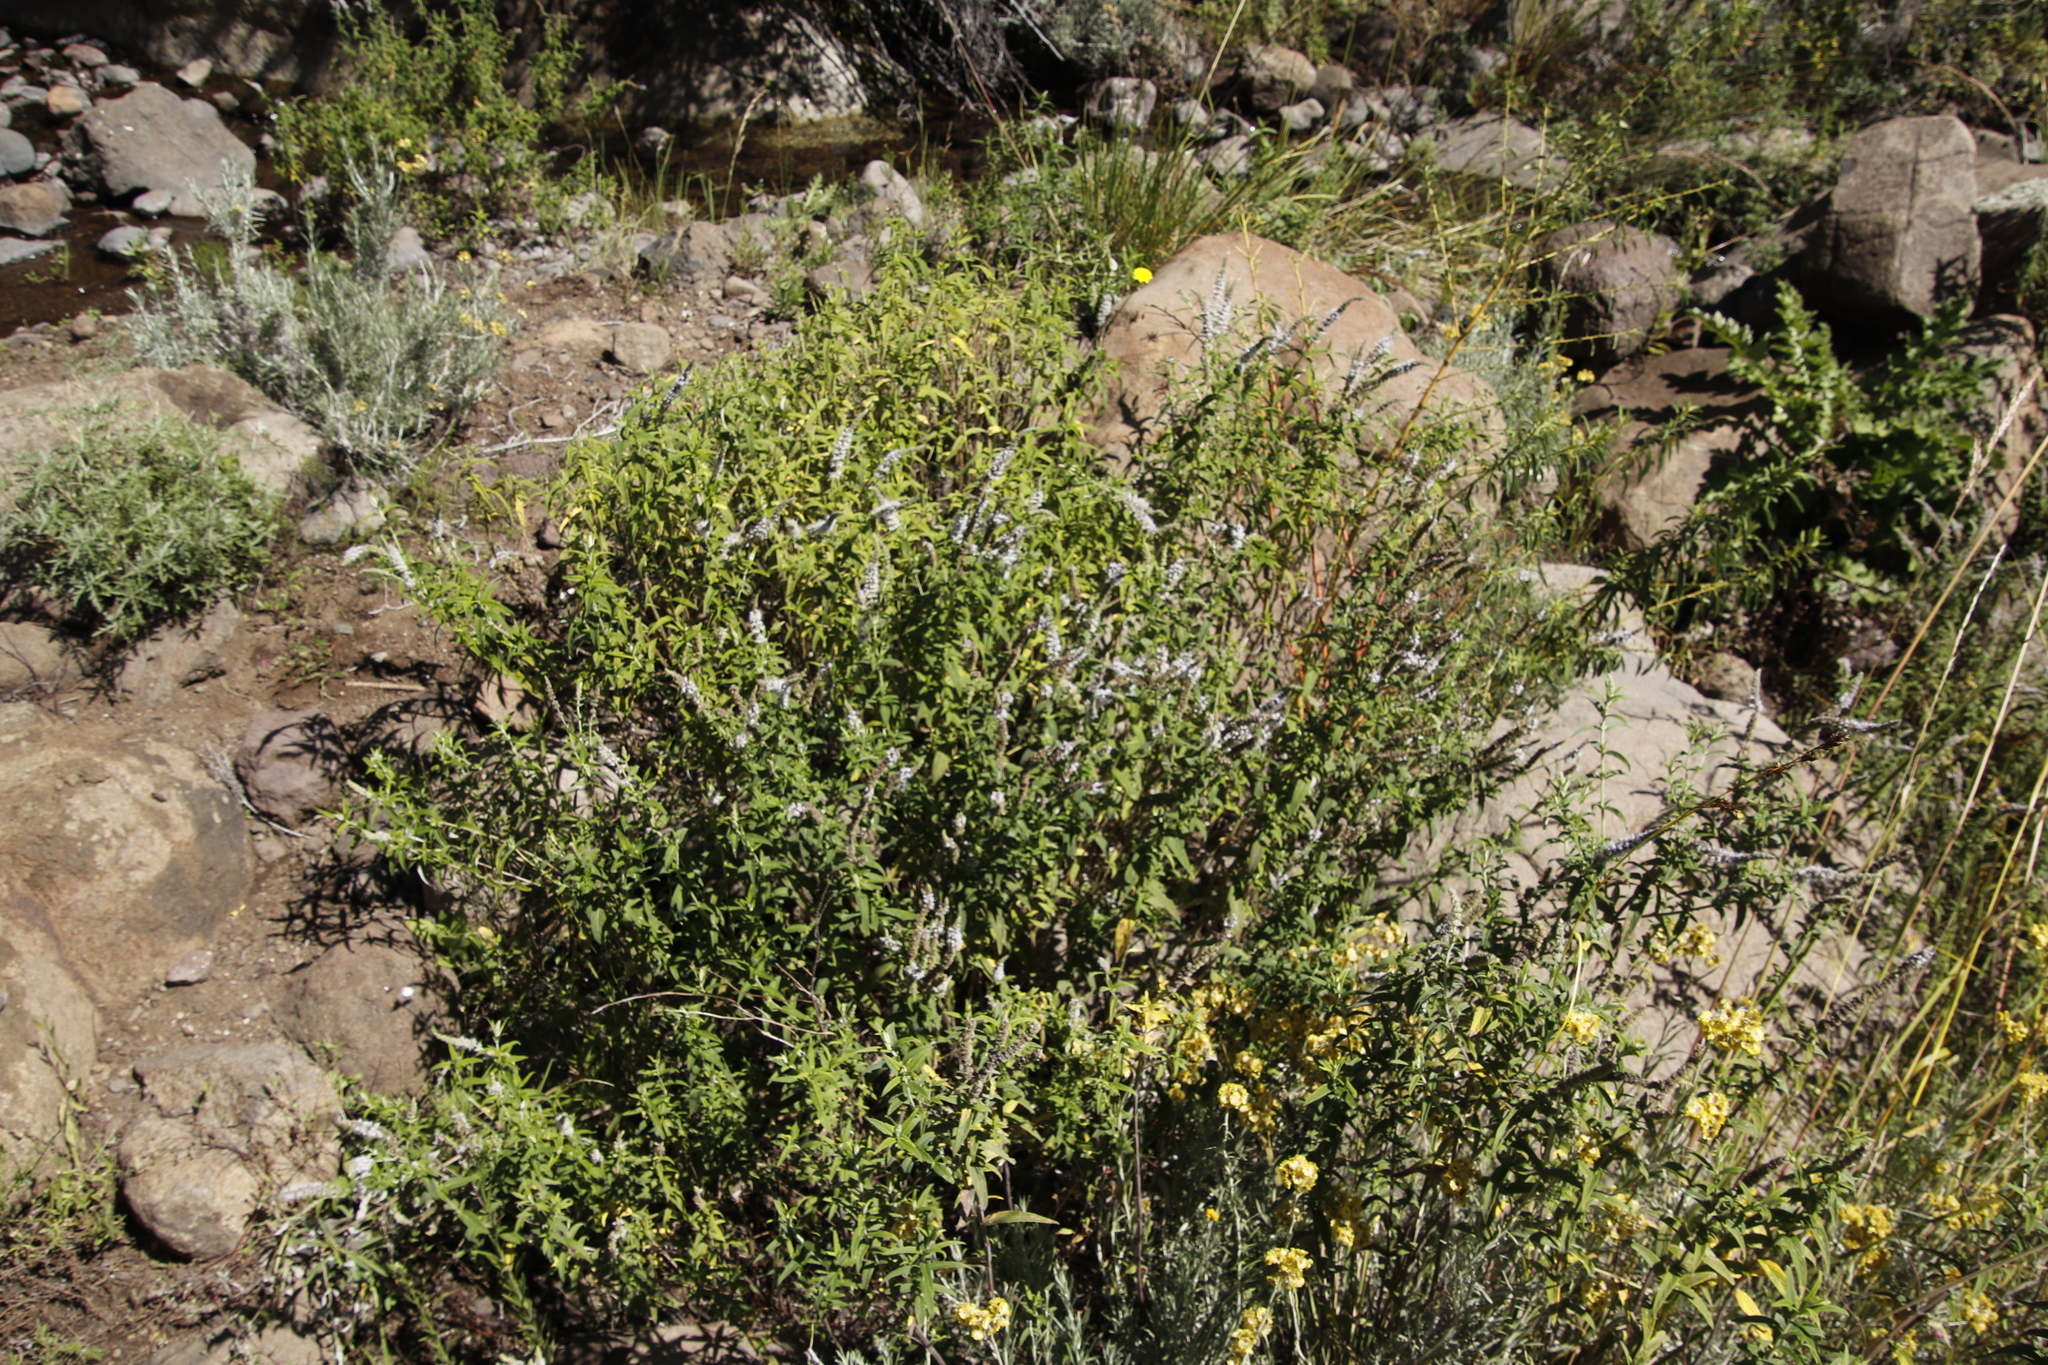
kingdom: Plantae
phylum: Tracheophyta
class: Magnoliopsida
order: Lamiales
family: Lamiaceae
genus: Mentha
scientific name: Mentha longifolia
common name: Horse mint
